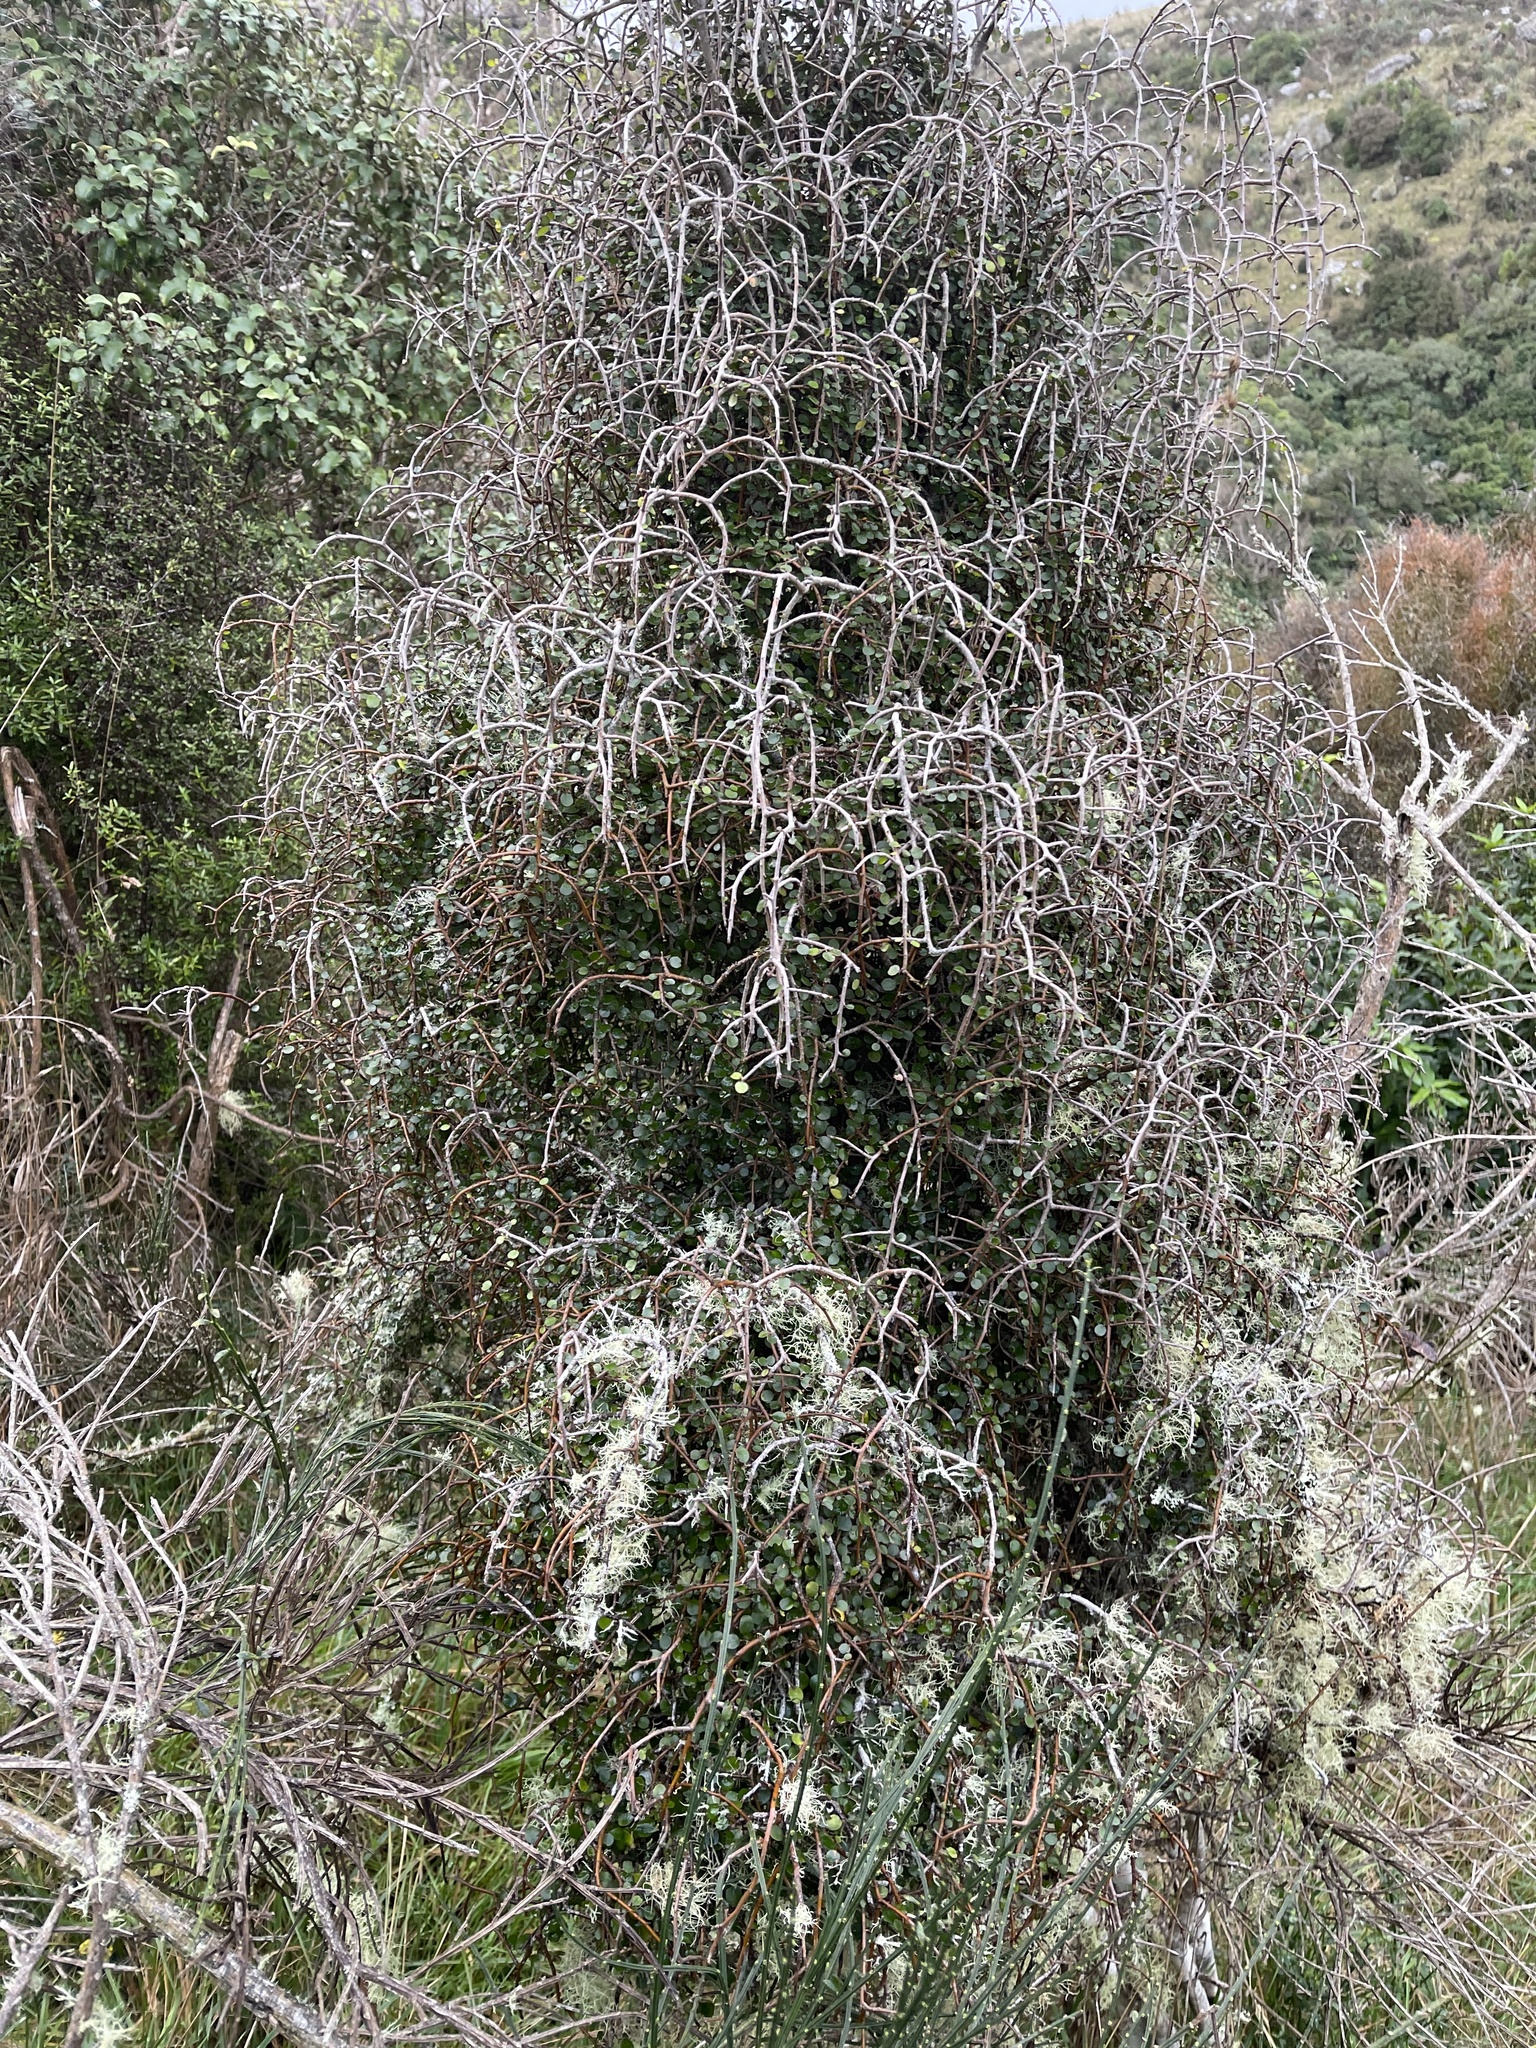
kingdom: Plantae
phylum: Tracheophyta
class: Magnoliopsida
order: Ericales
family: Primulaceae
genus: Myrsine
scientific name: Myrsine divaricata
